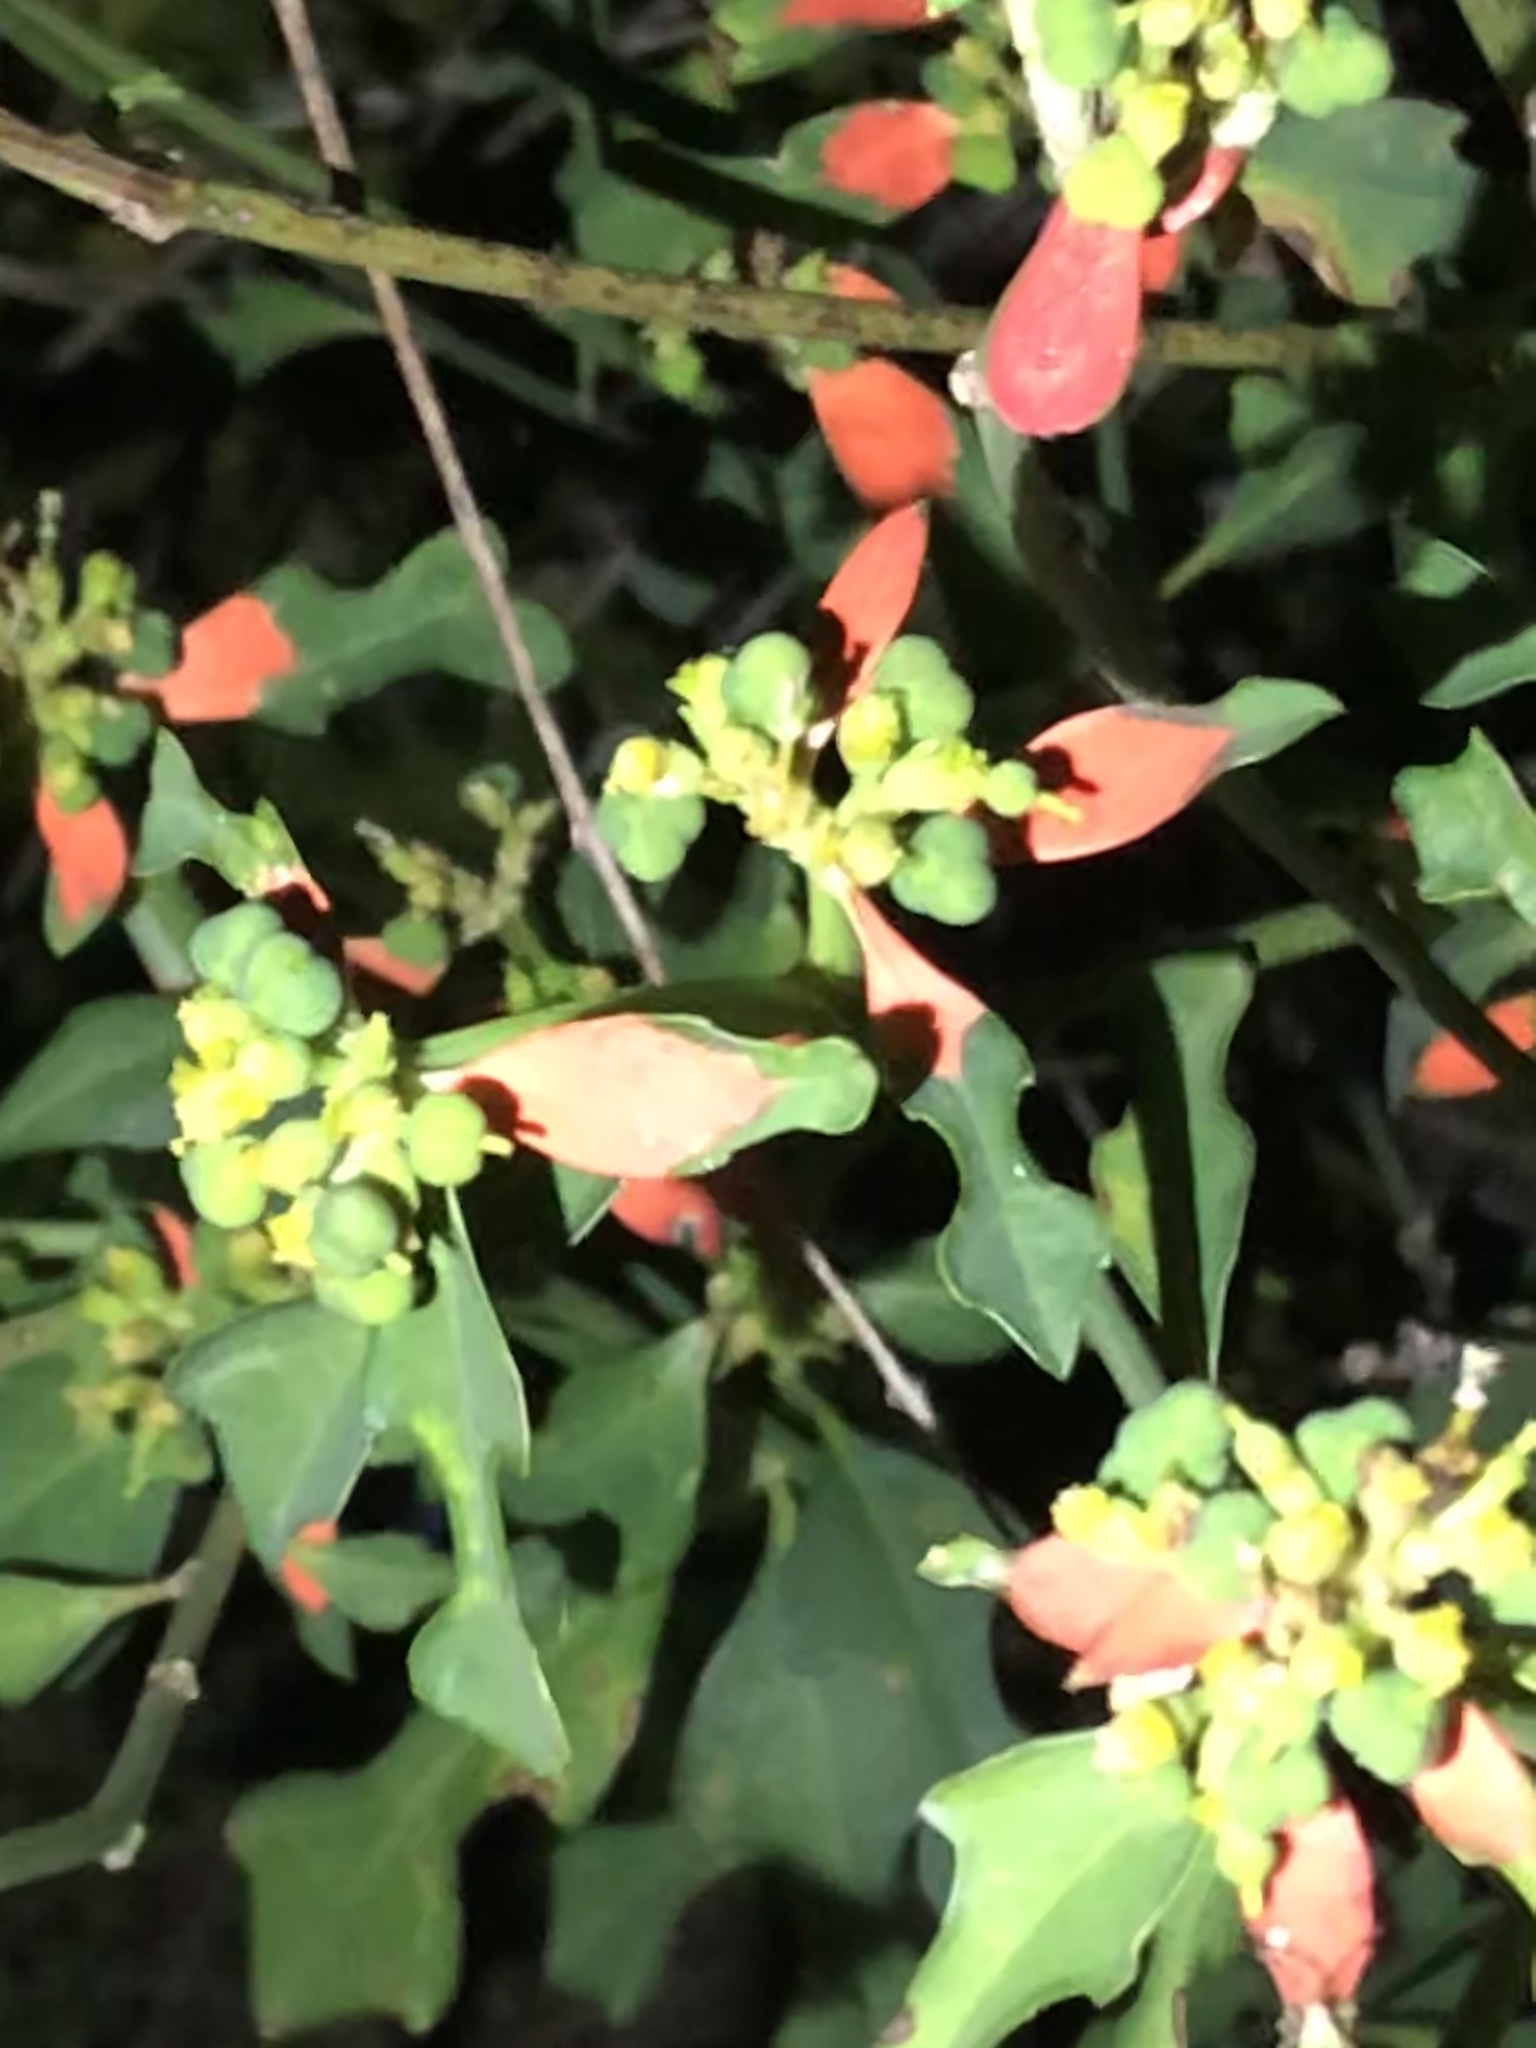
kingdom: Plantae
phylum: Tracheophyta
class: Magnoliopsida
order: Malpighiales
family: Euphorbiaceae
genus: Euphorbia
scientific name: Euphorbia heterophylla
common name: Mexican fireplant
